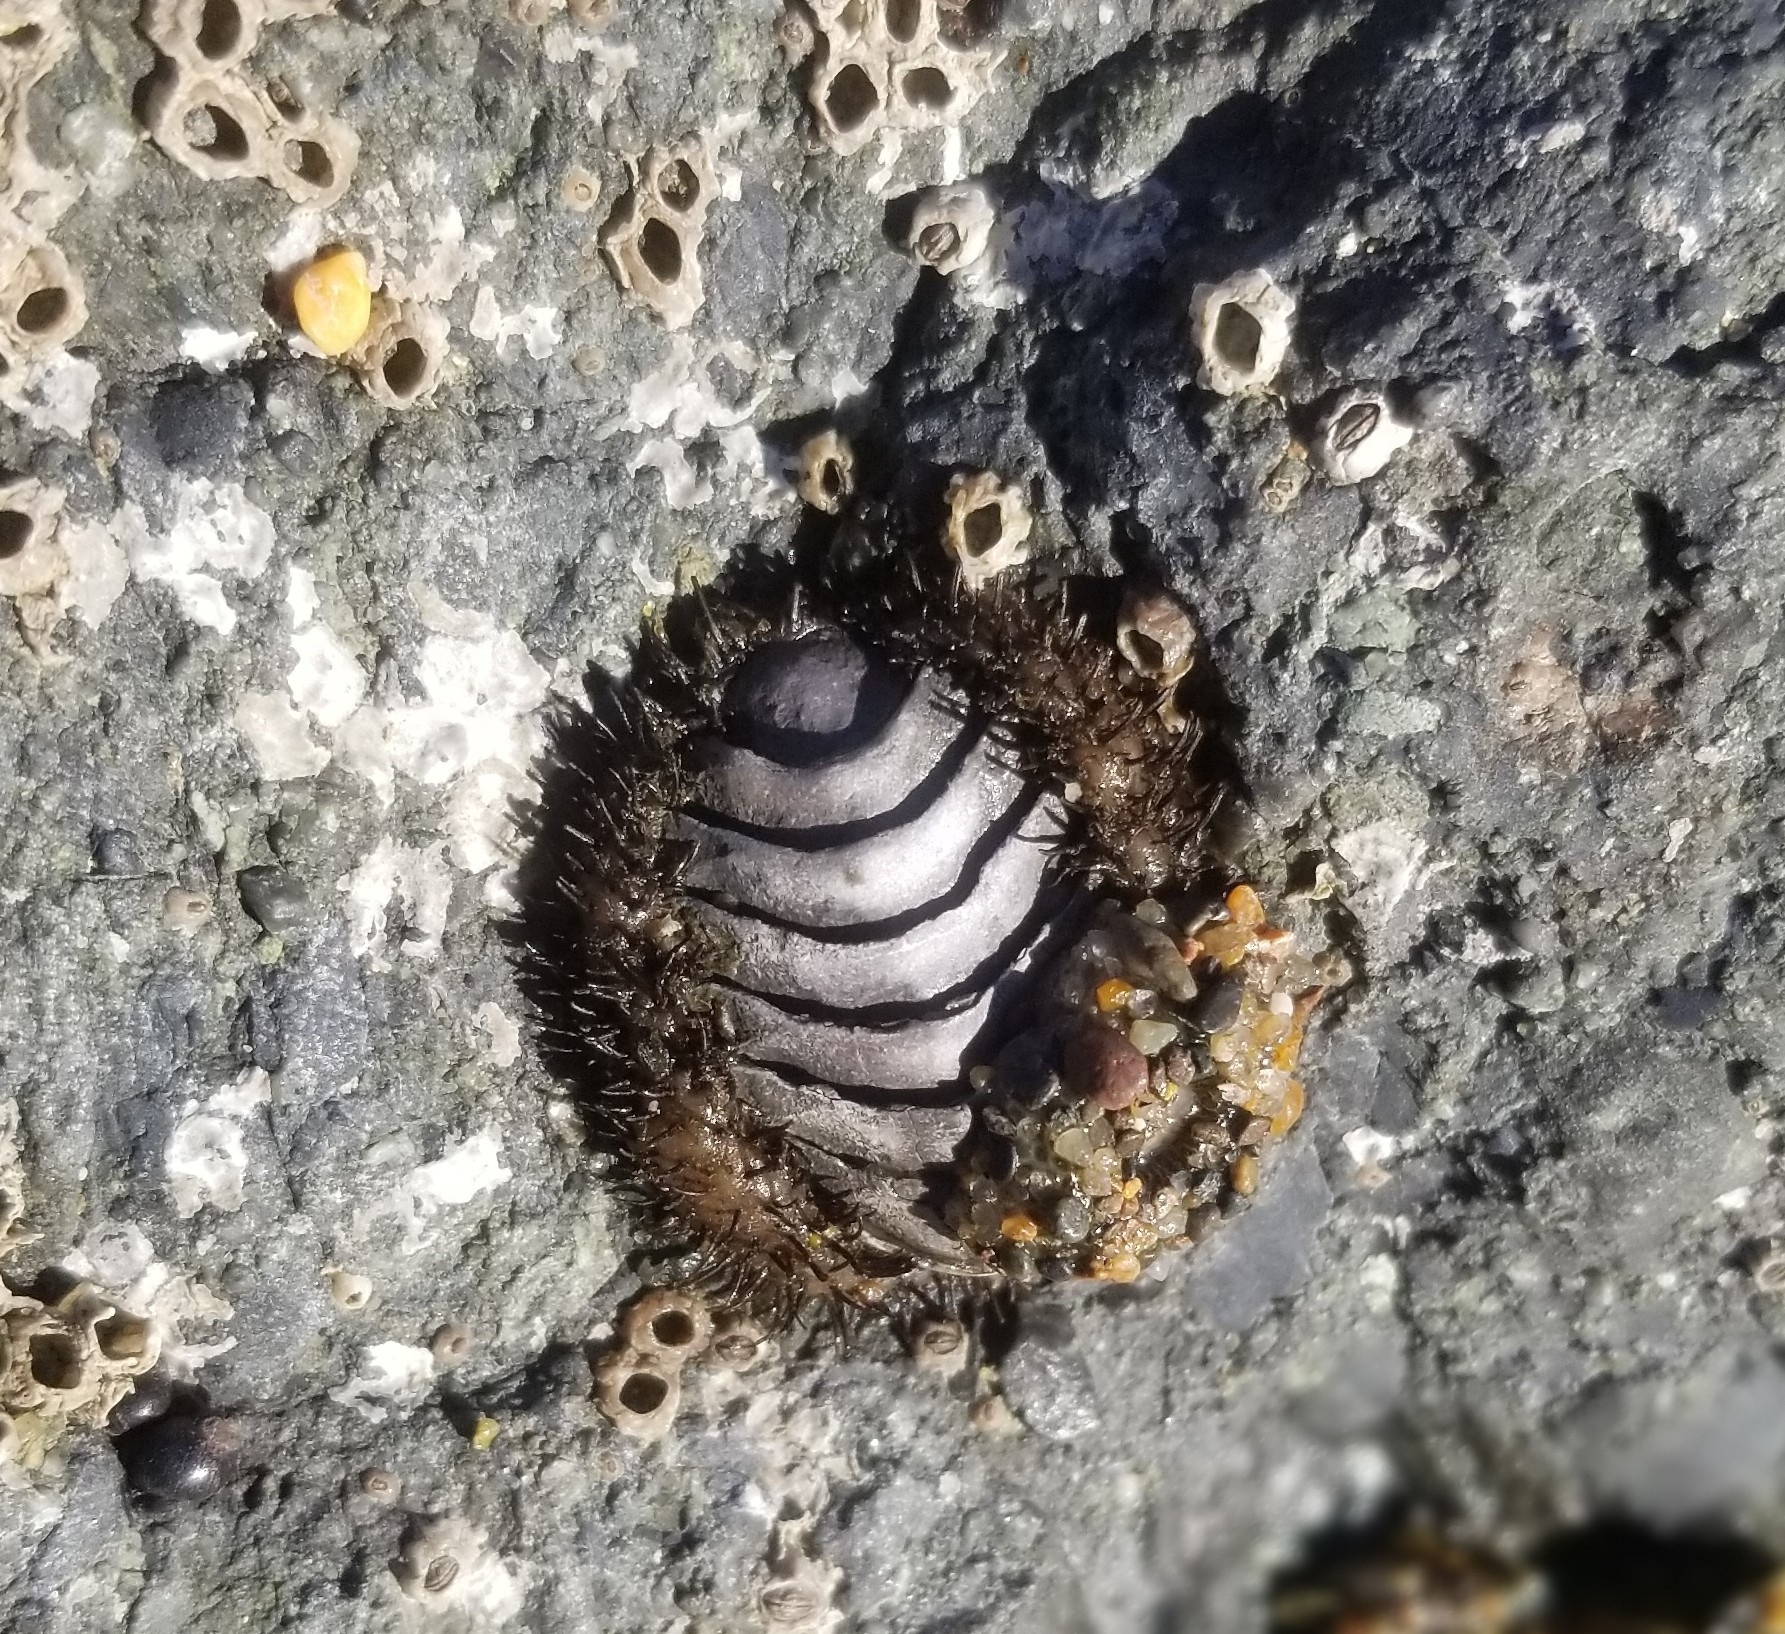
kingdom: Animalia
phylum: Mollusca
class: Polyplacophora
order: Chitonida
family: Mopaliidae
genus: Mopalia
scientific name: Mopalia muscosa
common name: Mossy chiton
